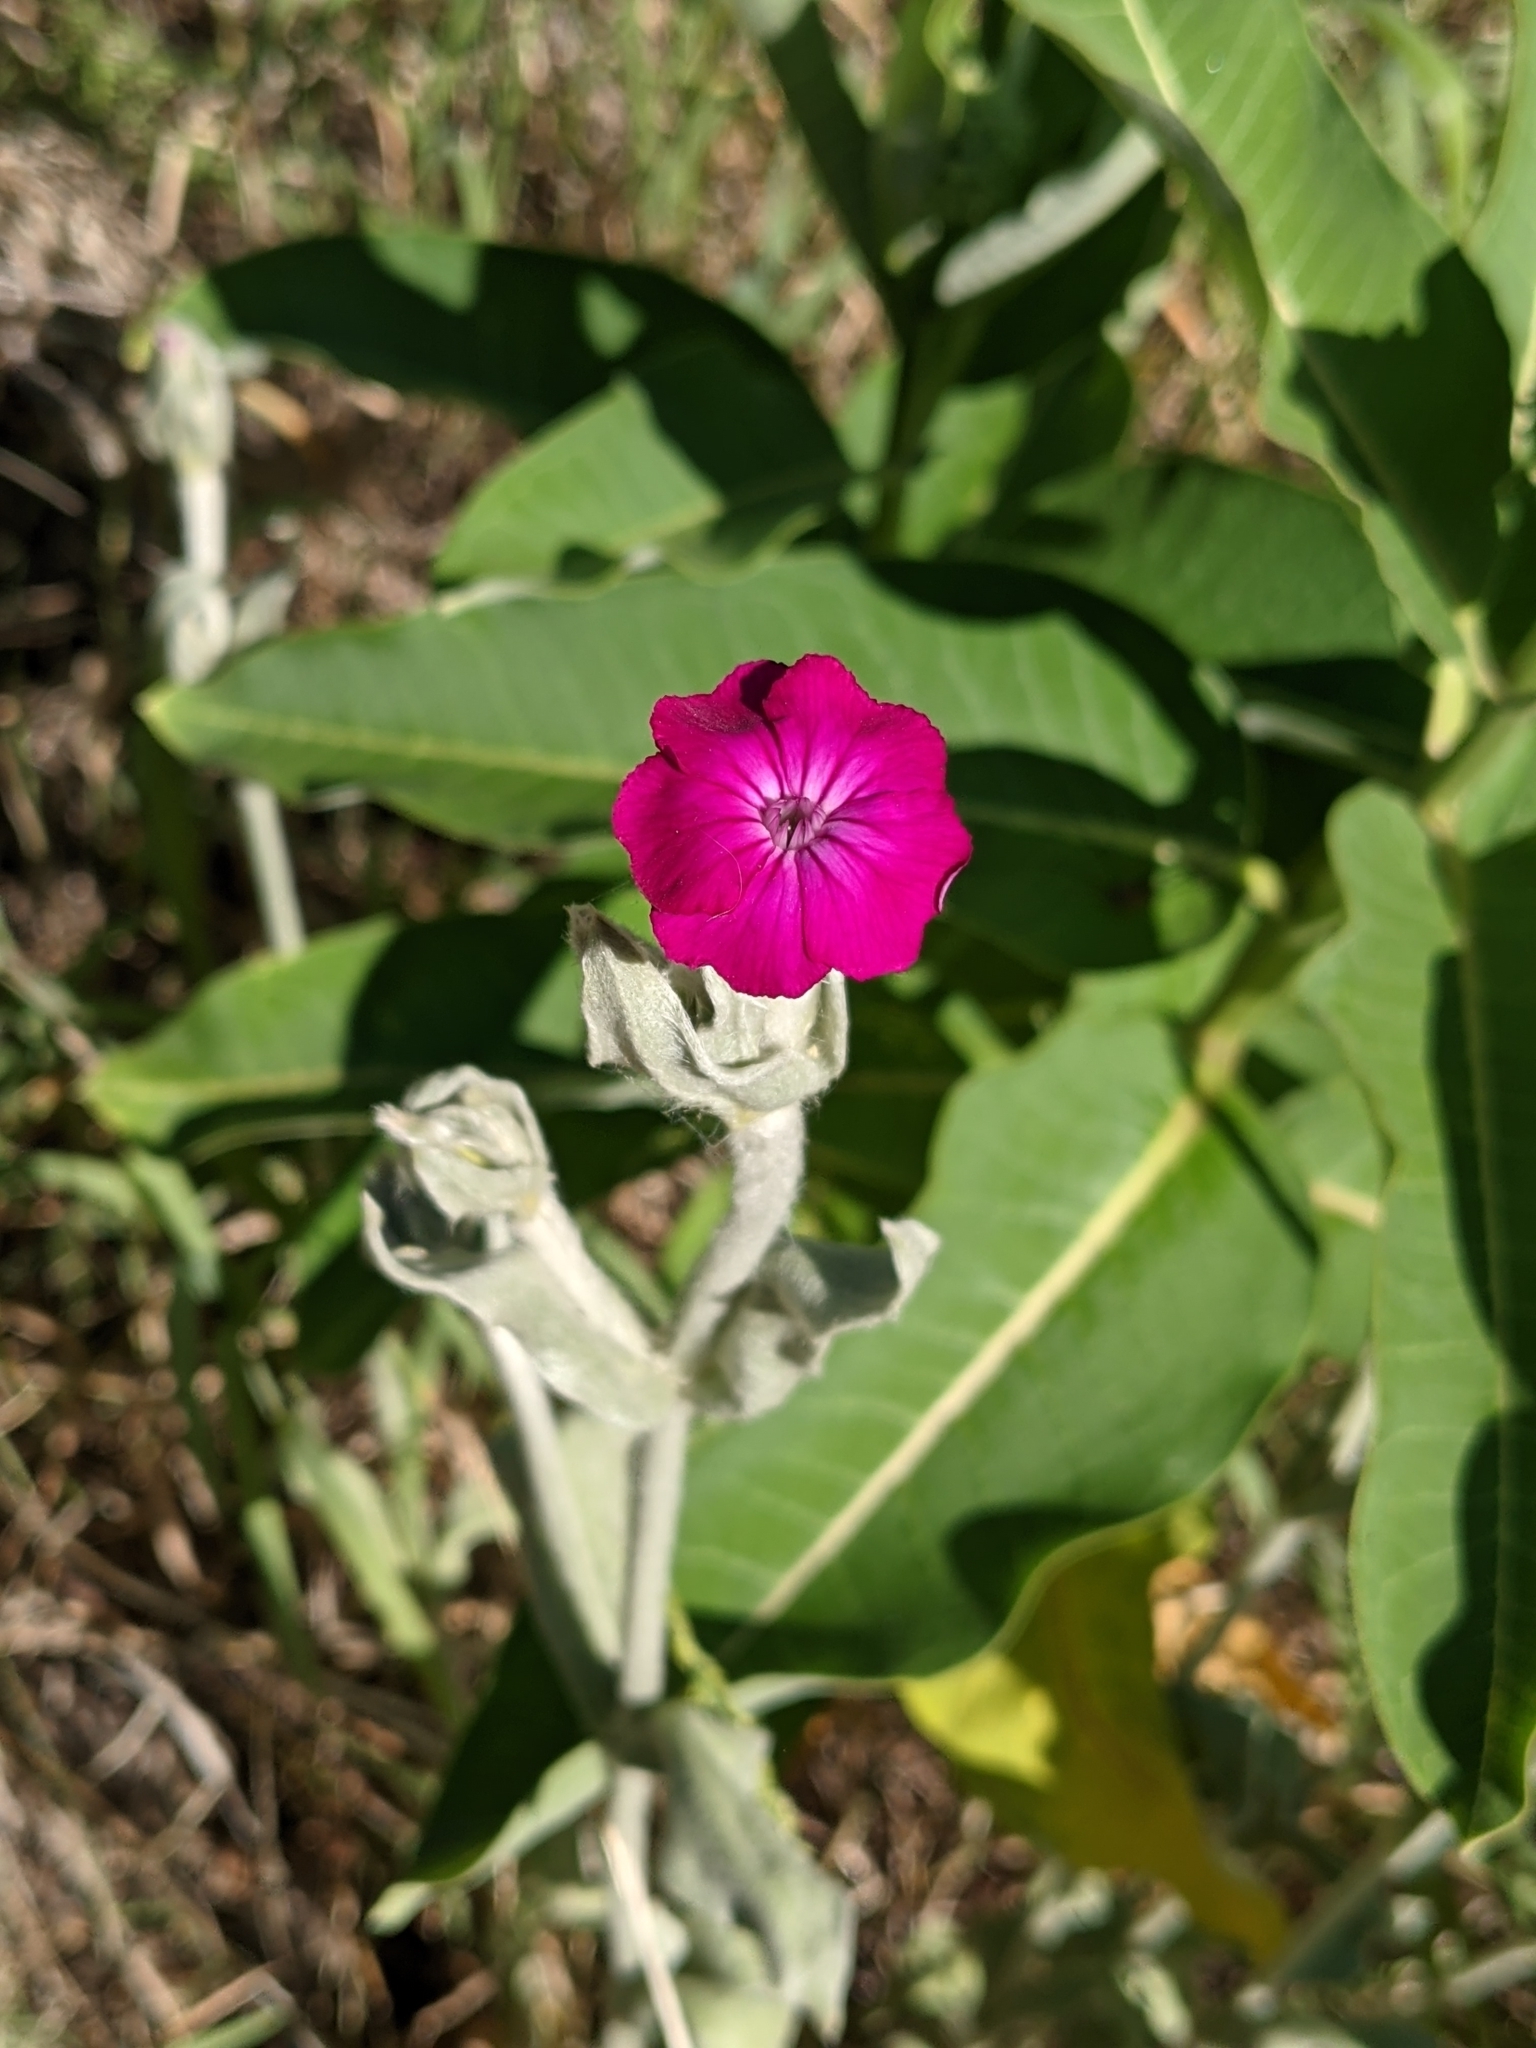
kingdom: Plantae
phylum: Tracheophyta
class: Magnoliopsida
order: Caryophyllales
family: Caryophyllaceae
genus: Silene
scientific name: Silene coronaria
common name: Rose campion
